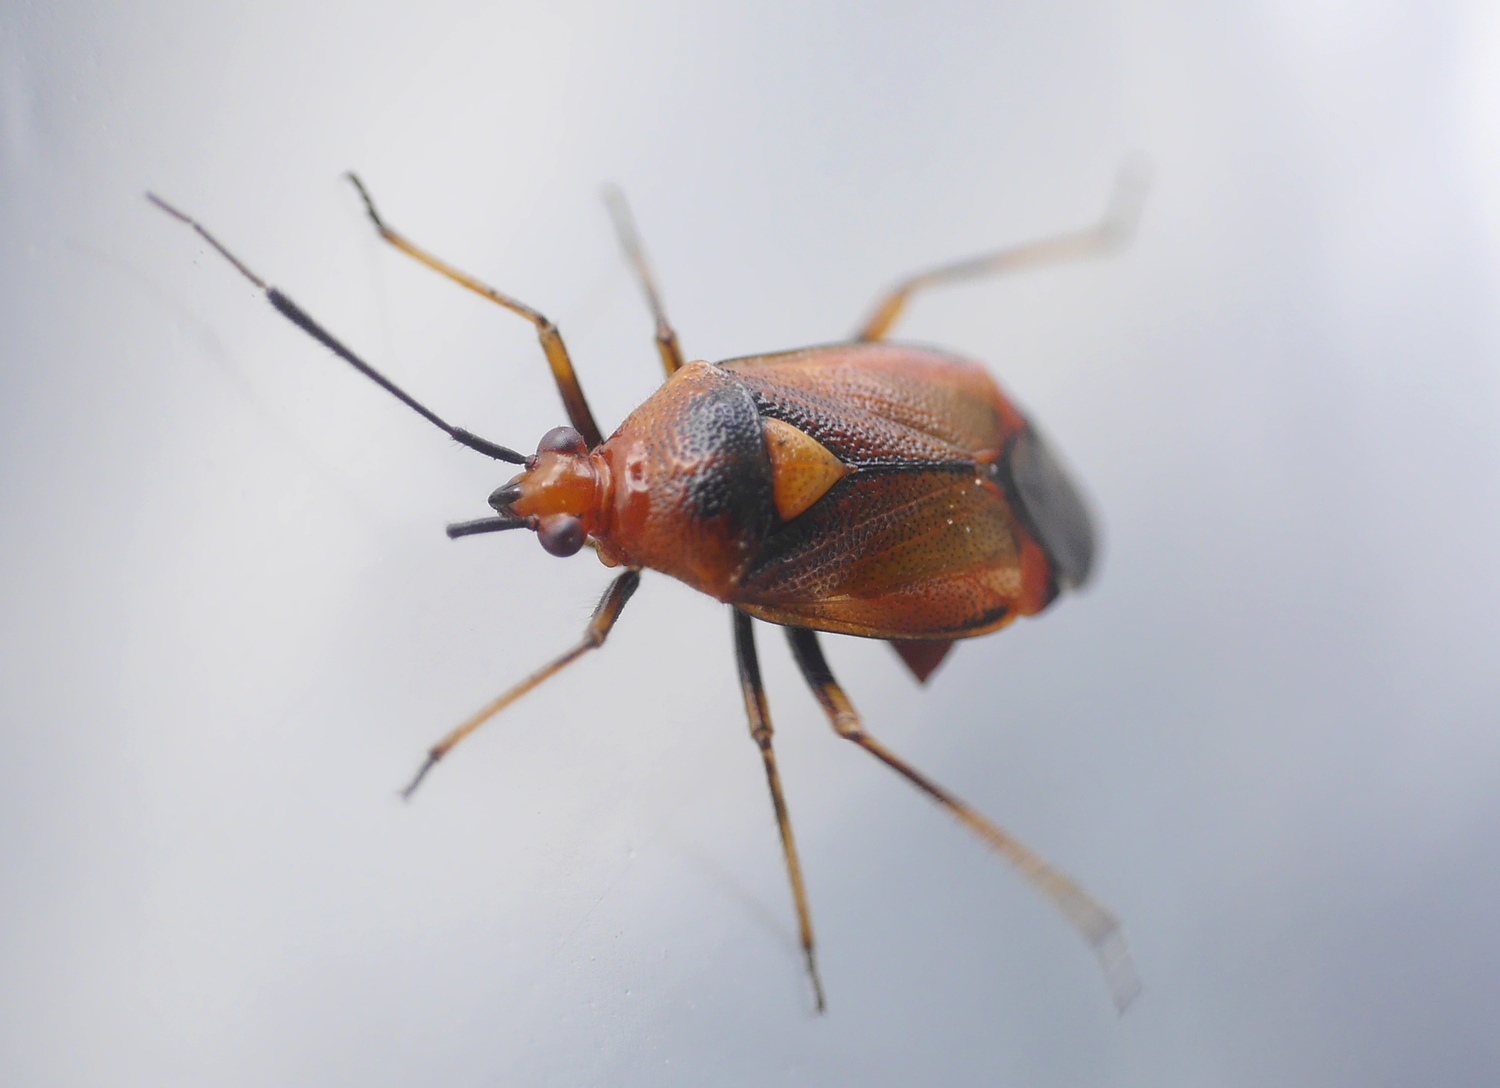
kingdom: Animalia
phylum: Arthropoda
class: Insecta
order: Hemiptera
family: Miridae
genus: Deraeocoris
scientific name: Deraeocoris ruber
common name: Plant bug
